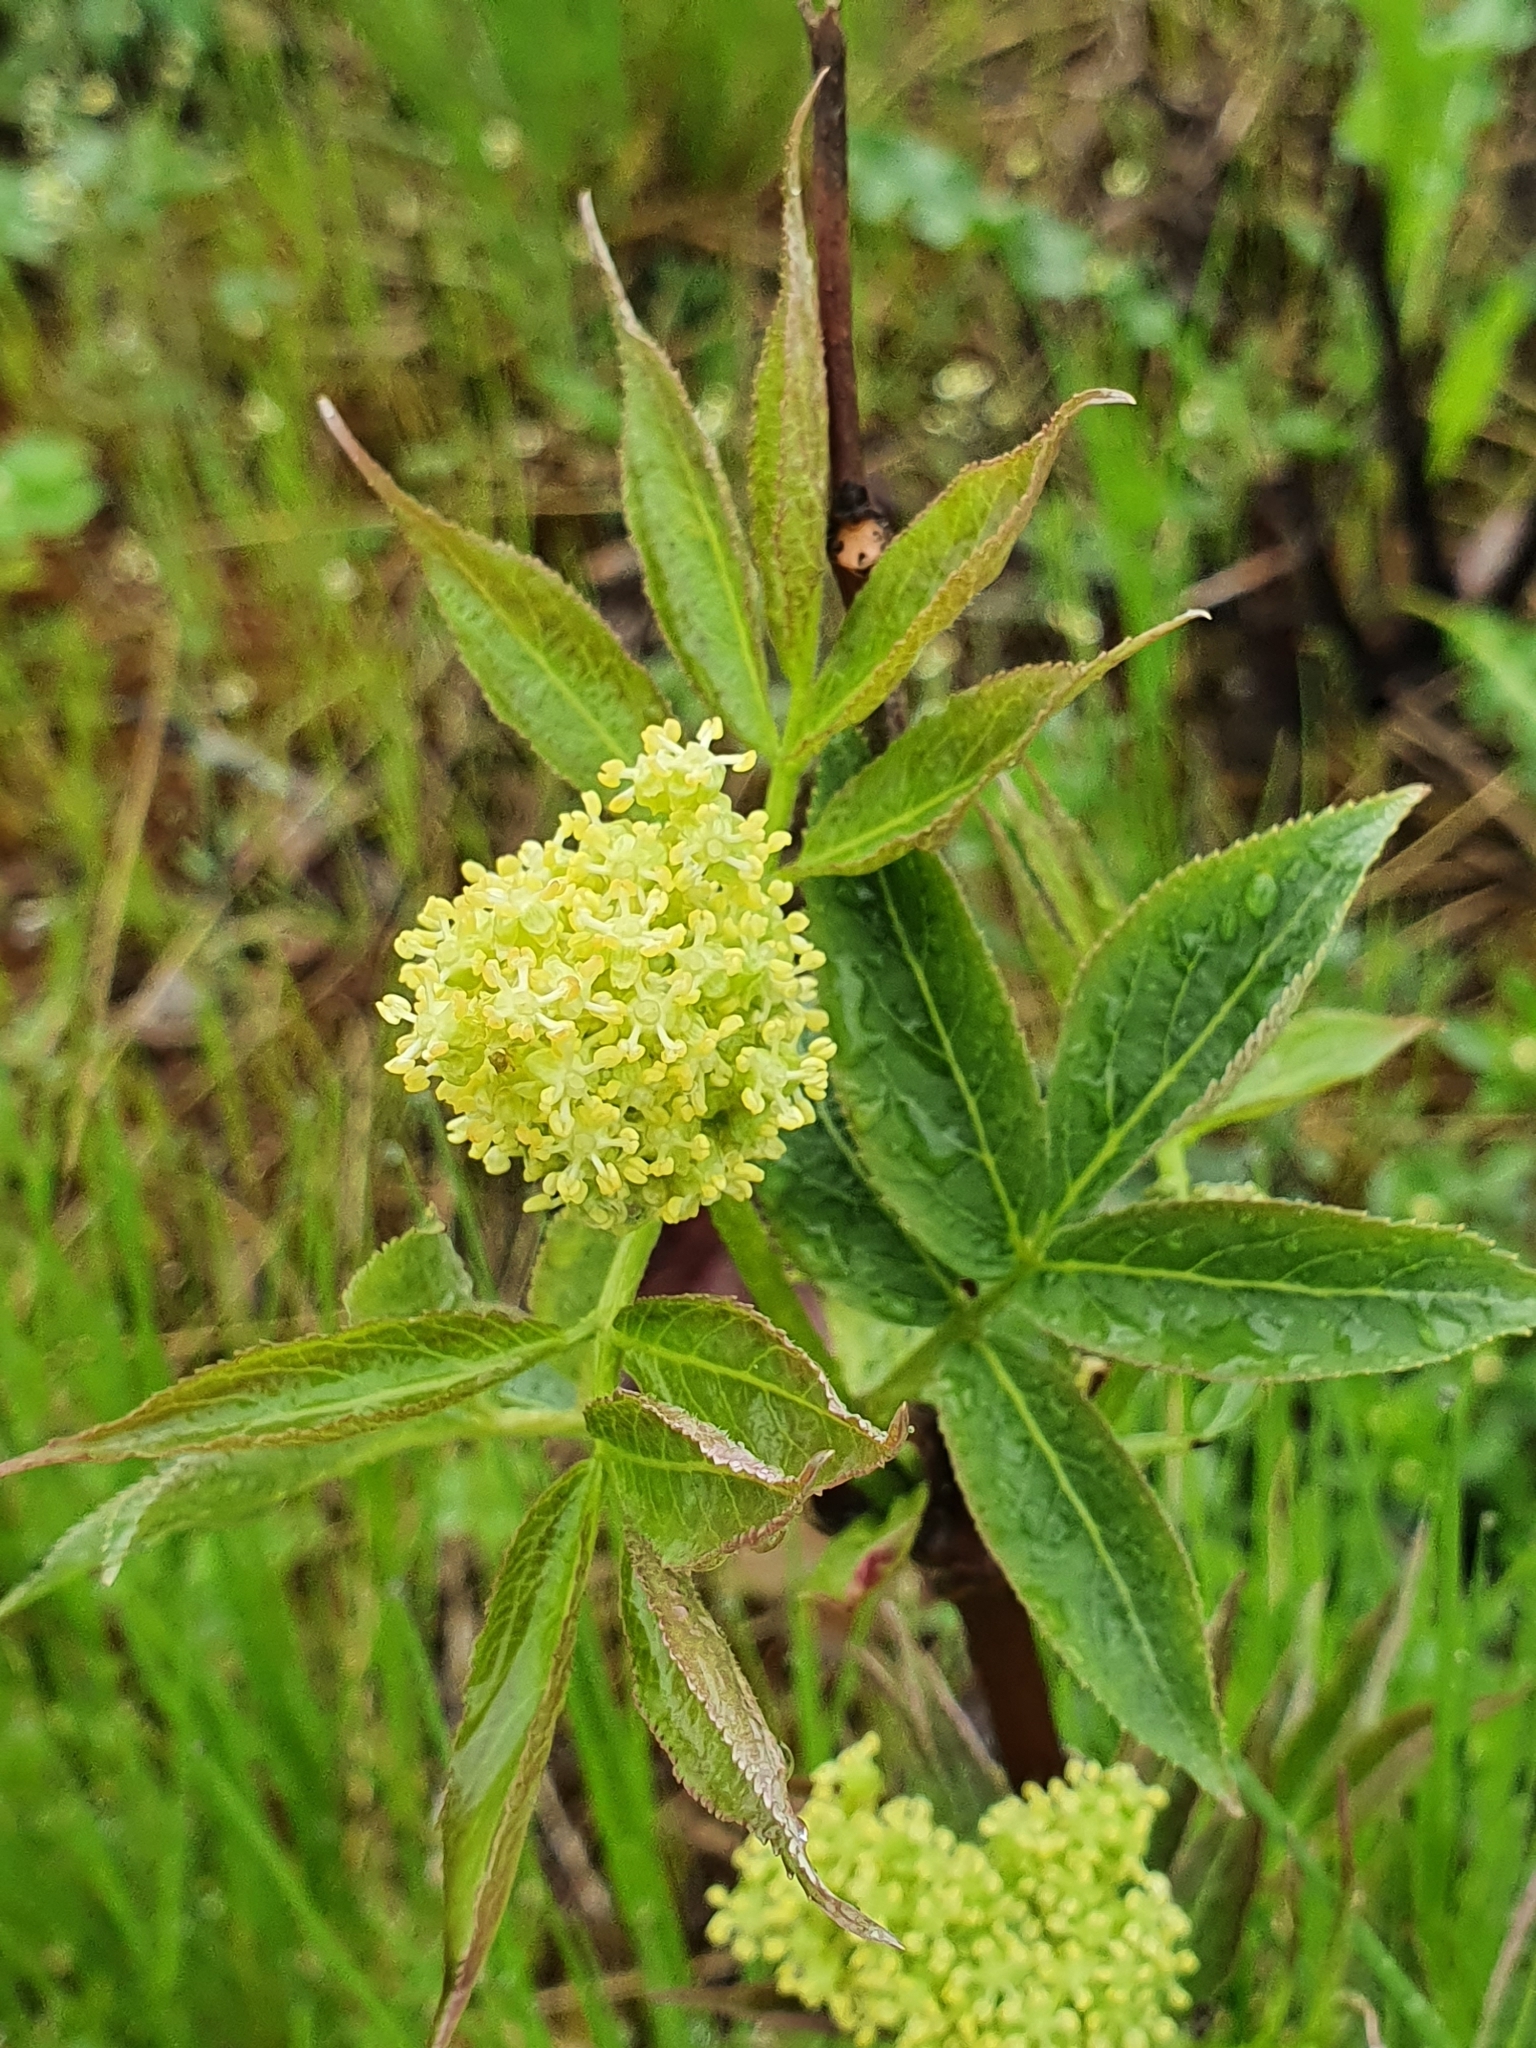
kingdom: Plantae
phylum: Tracheophyta
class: Magnoliopsida
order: Dipsacales
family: Viburnaceae
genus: Sambucus
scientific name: Sambucus racemosa
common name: Red-berried elder
